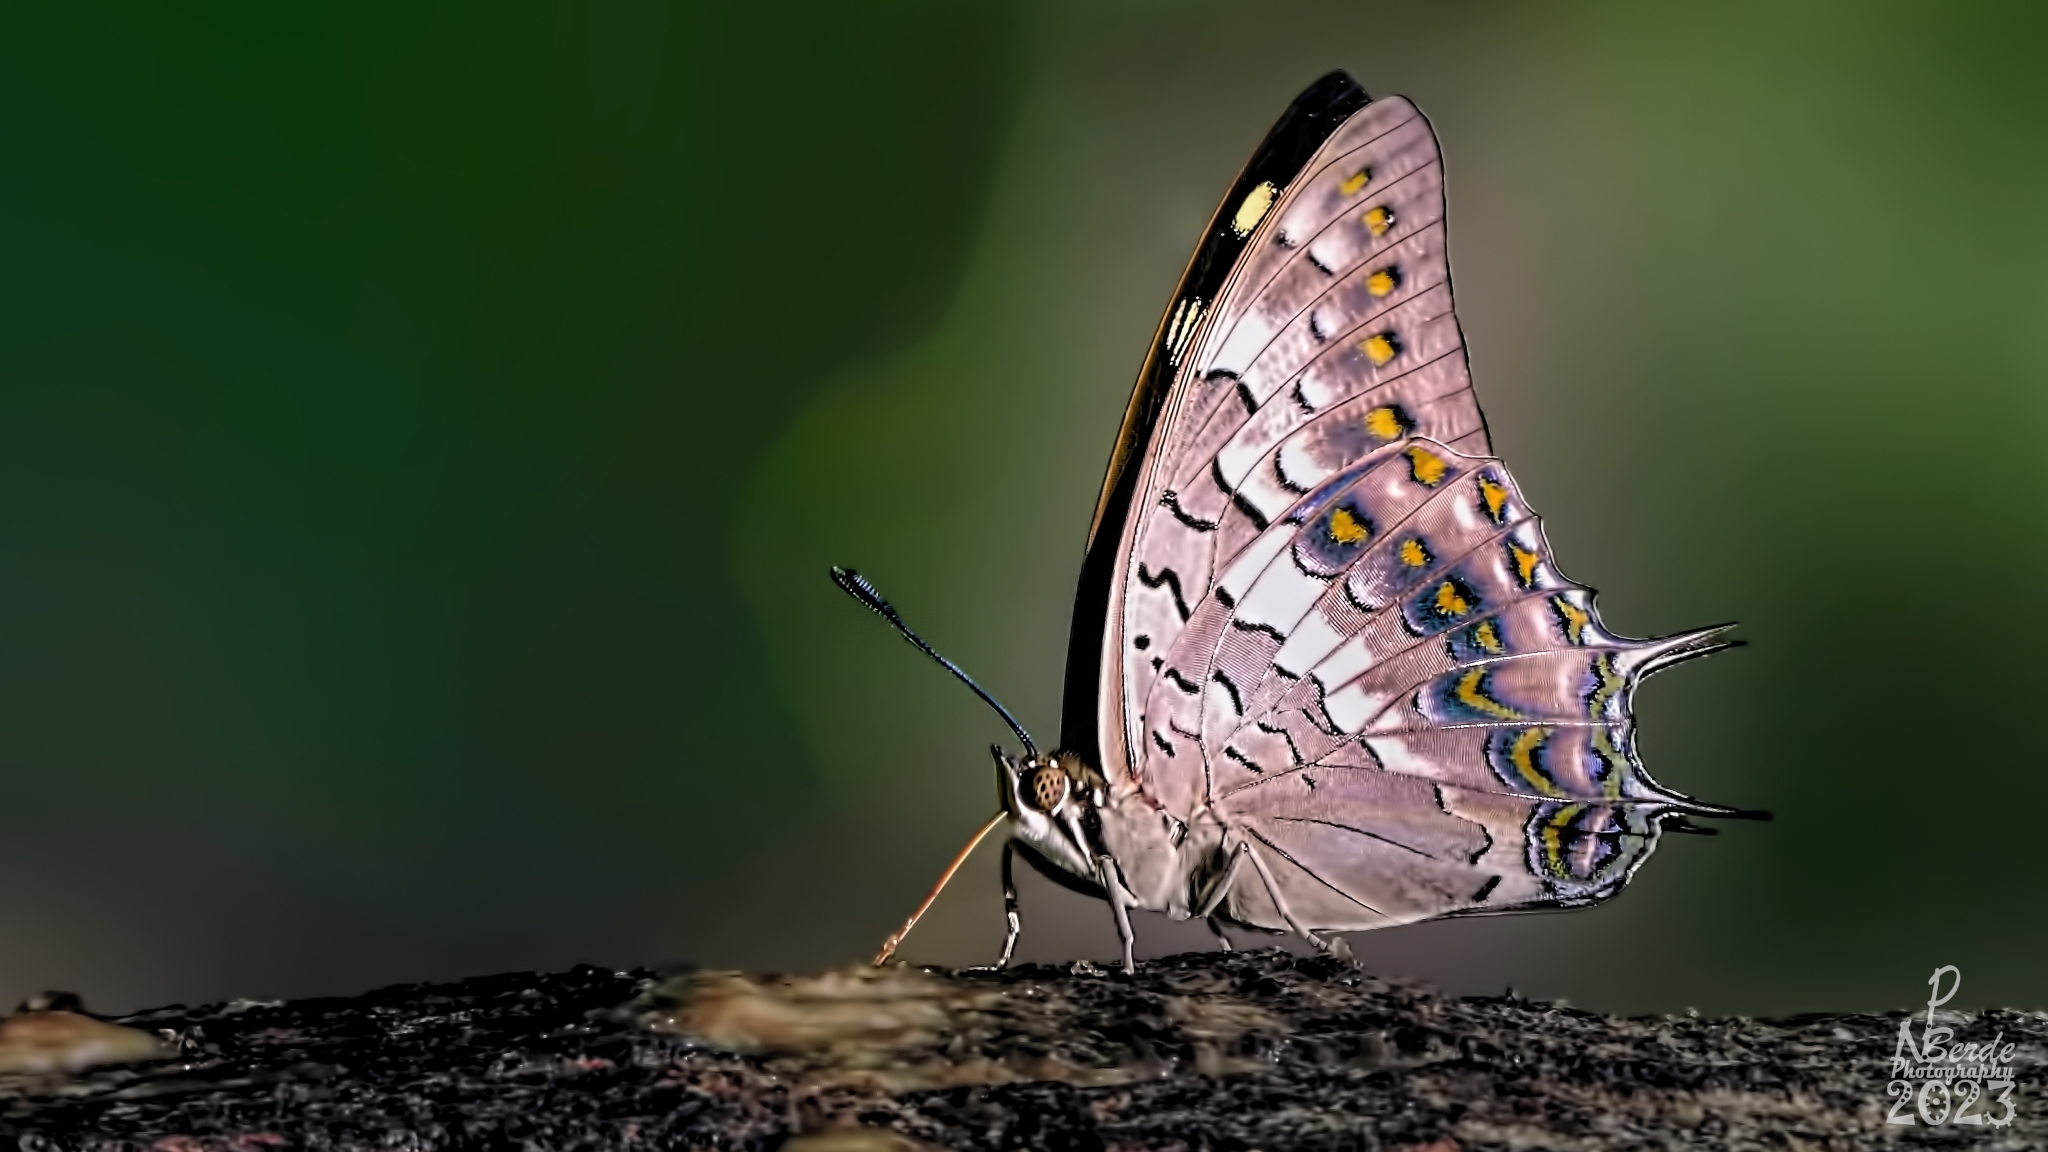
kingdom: Animalia
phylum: Arthropoda
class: Insecta
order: Lepidoptera
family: Nymphalidae
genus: Charaxes
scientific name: Charaxes solon
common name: Black rajah
